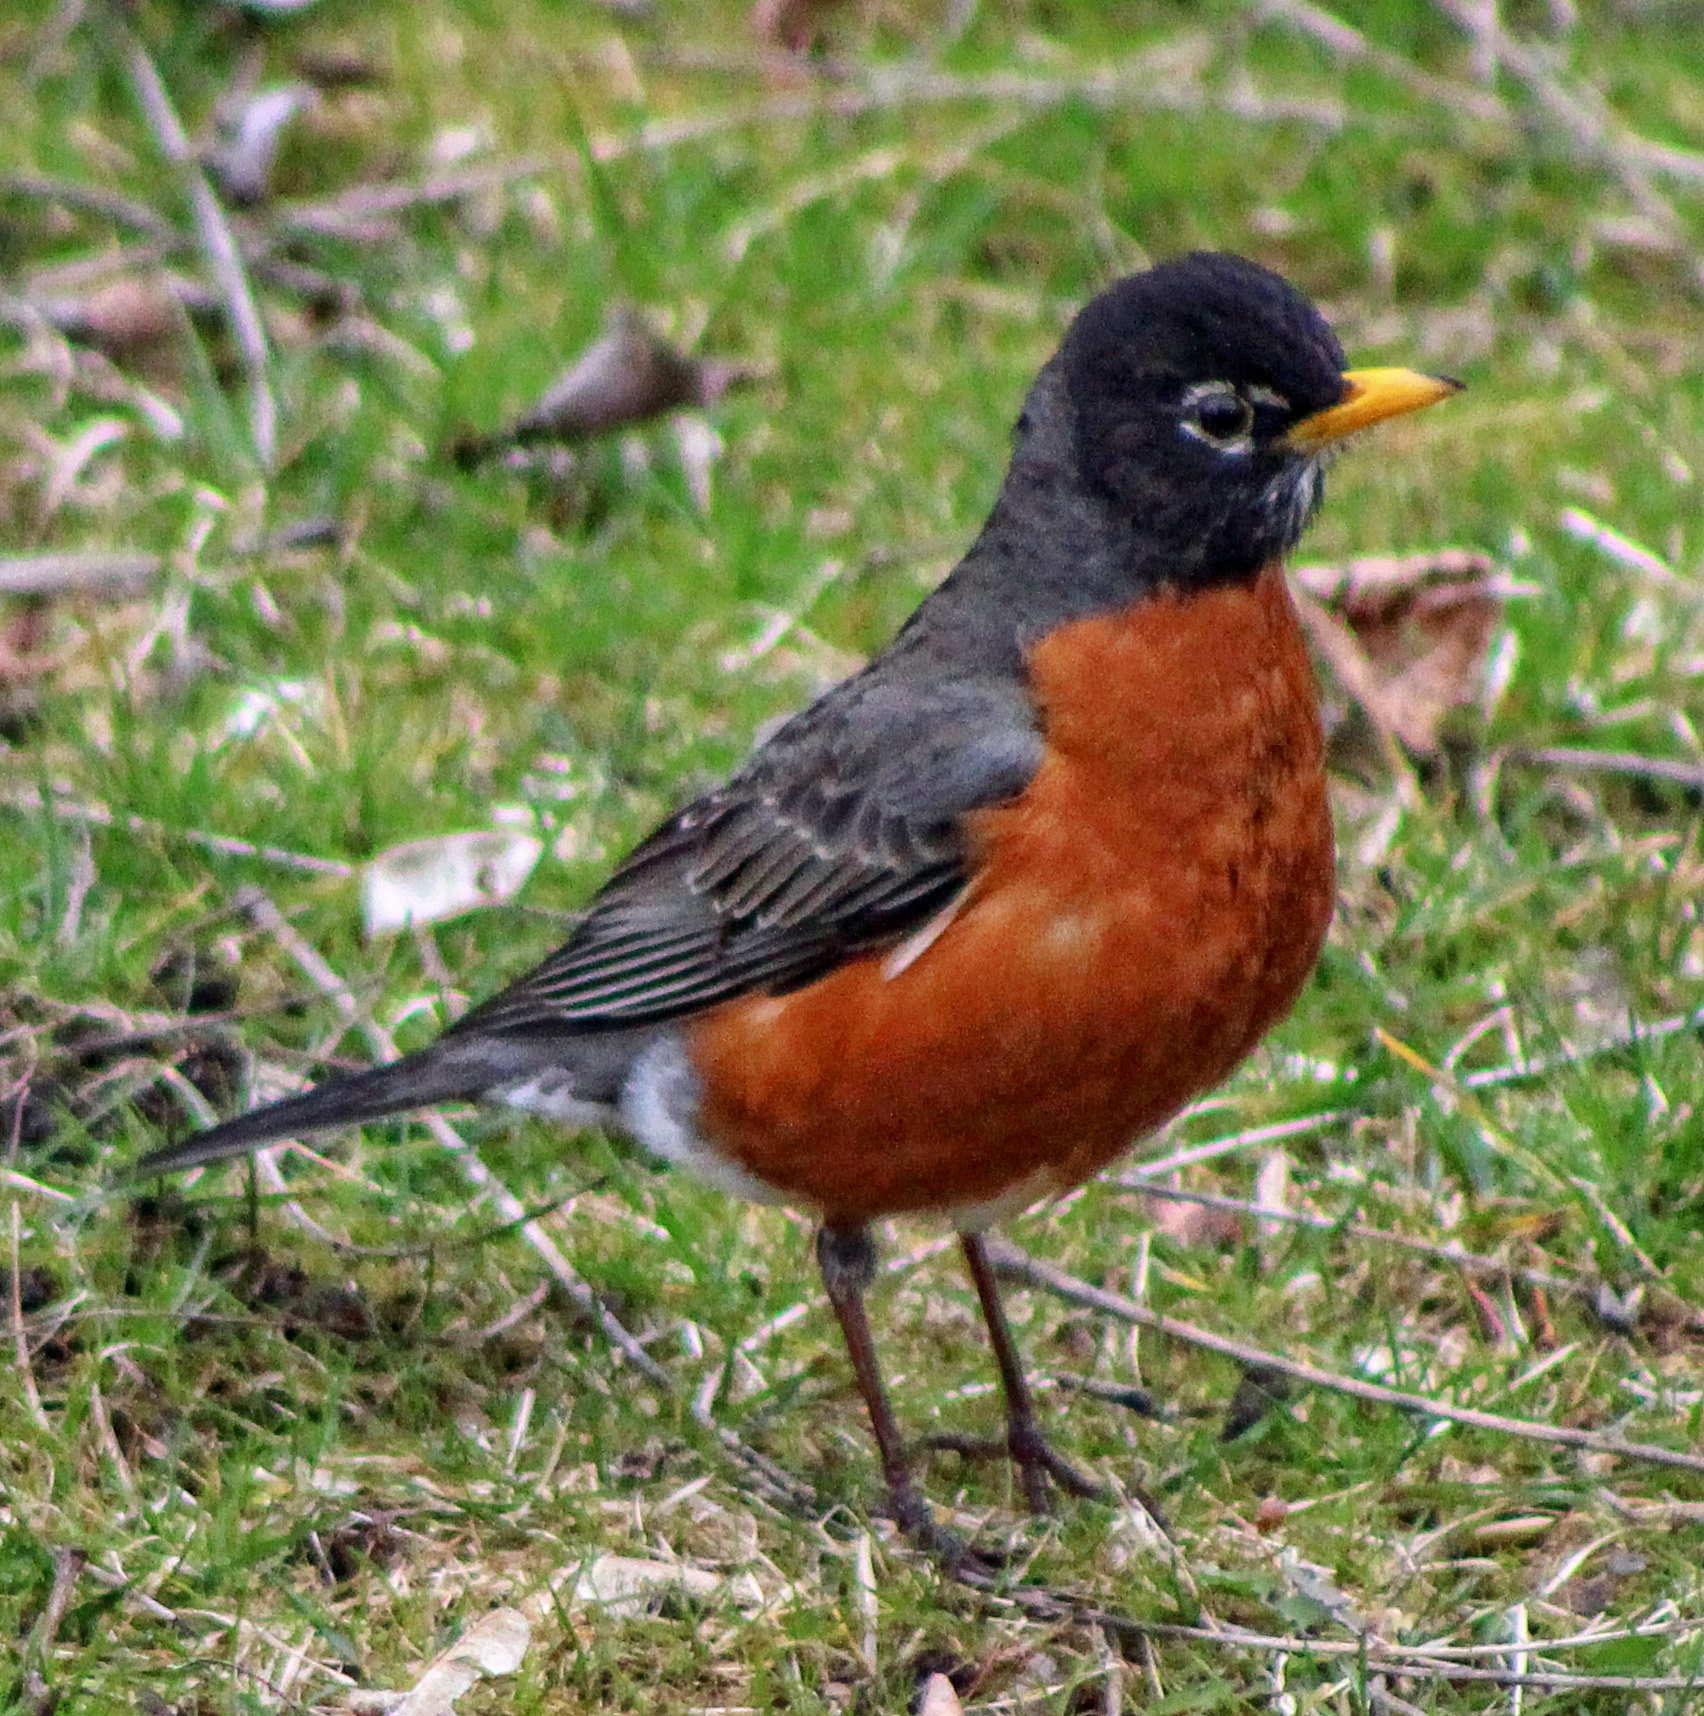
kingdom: Animalia
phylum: Chordata
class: Aves
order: Passeriformes
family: Turdidae
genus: Turdus
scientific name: Turdus migratorius
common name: American robin
